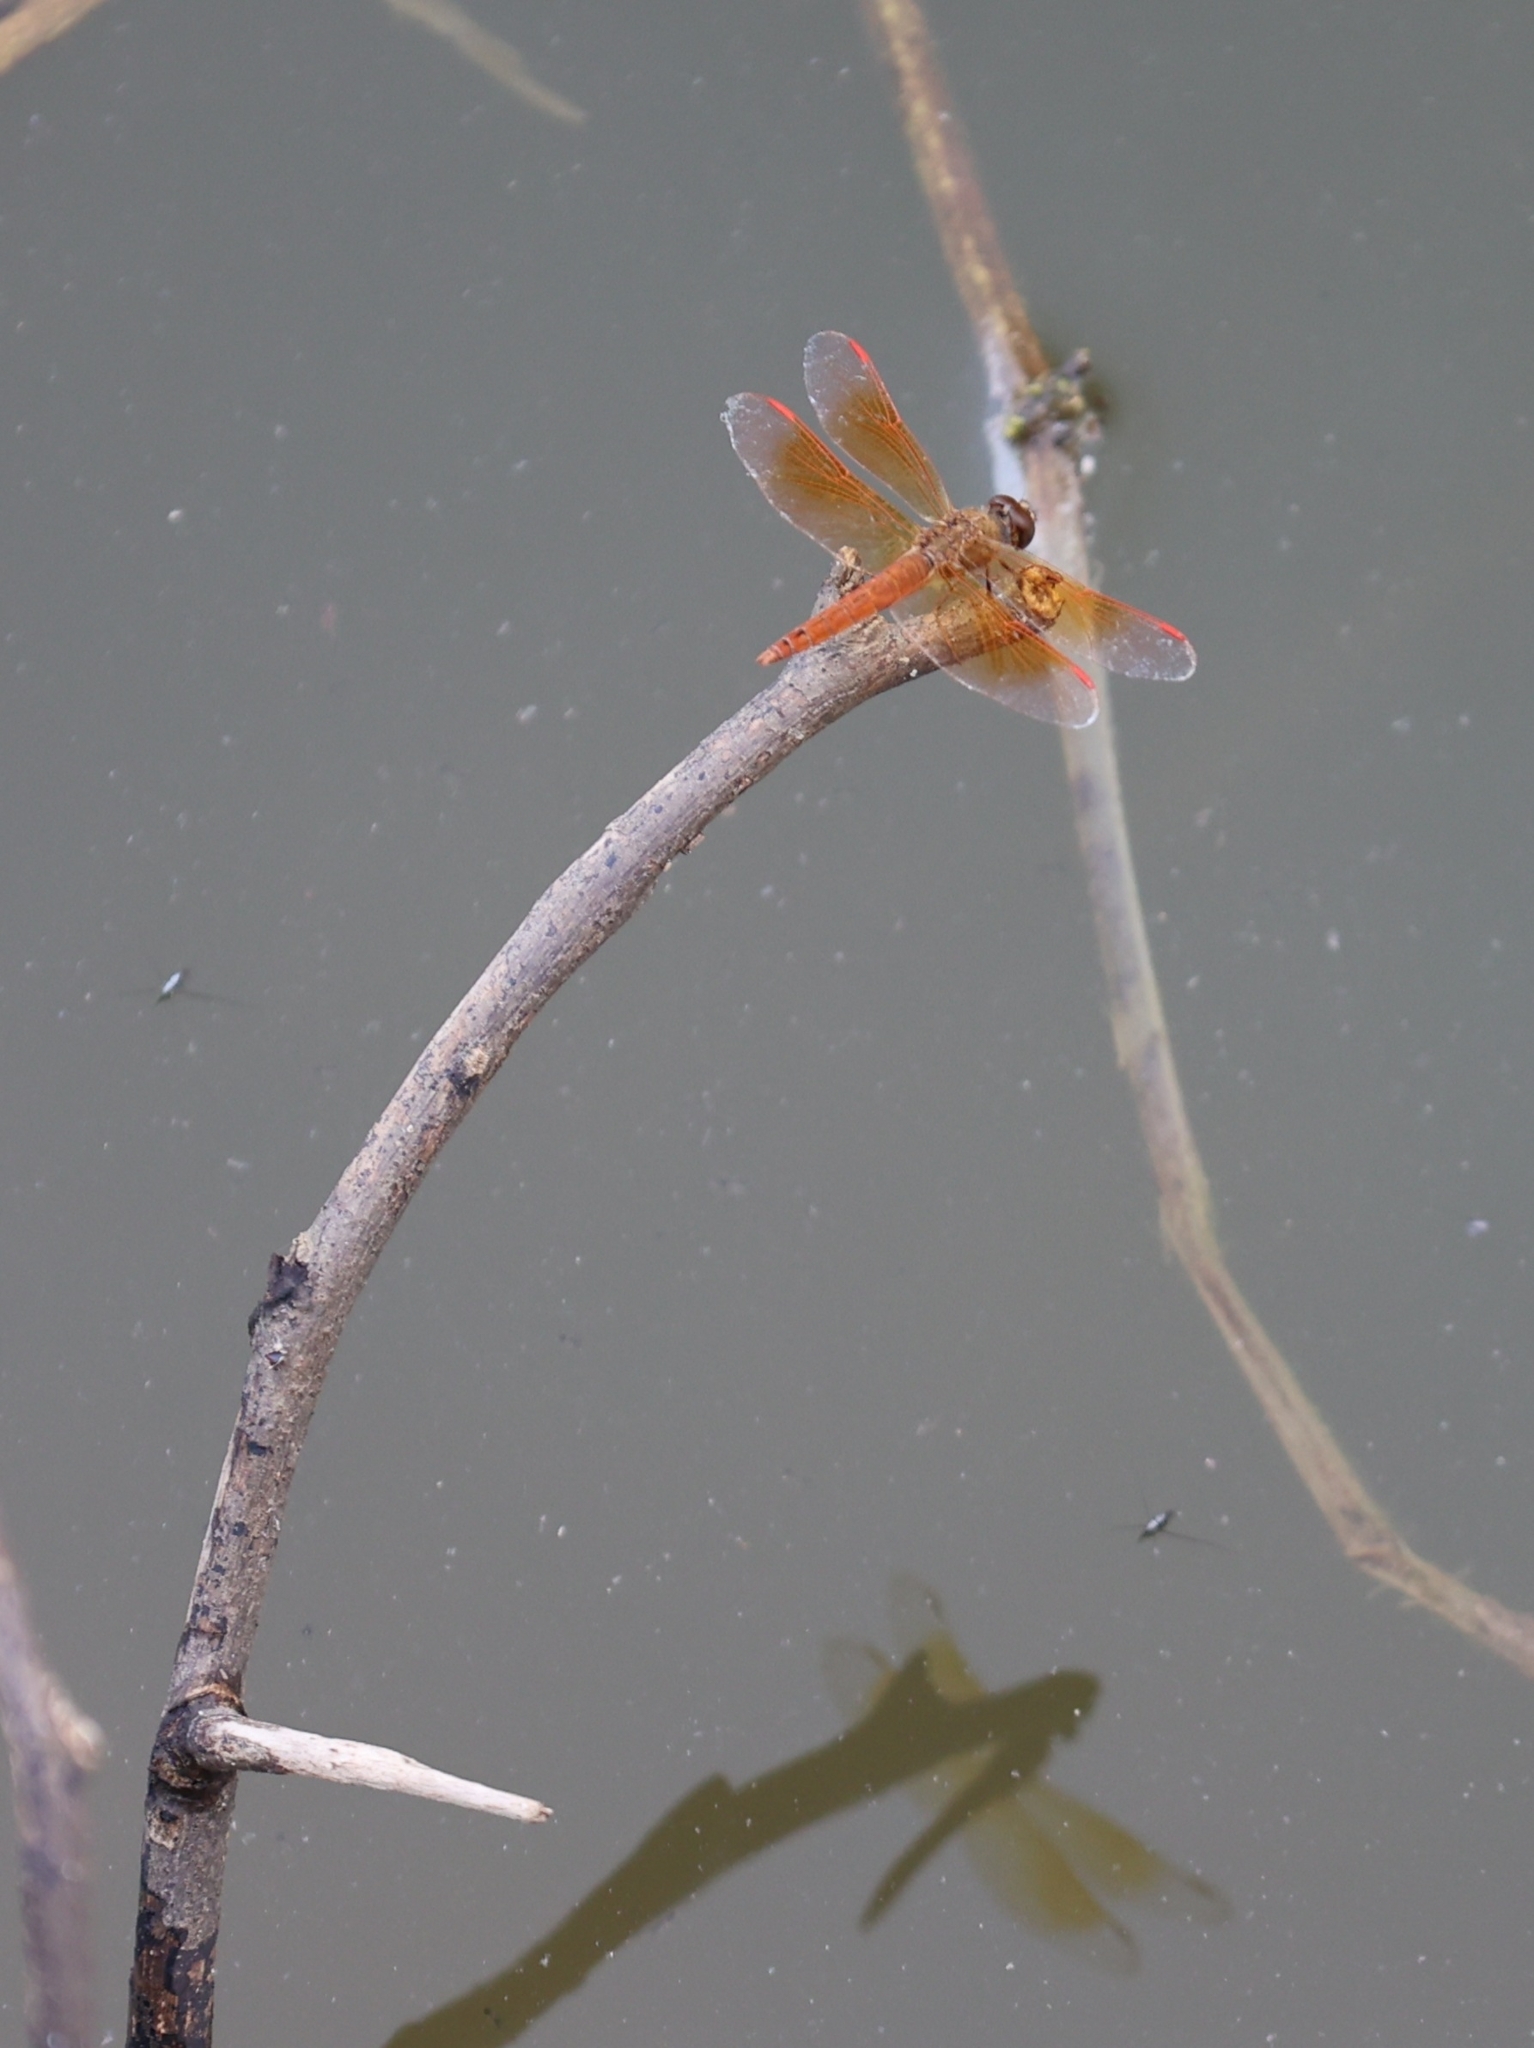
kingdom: Animalia
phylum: Arthropoda
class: Insecta
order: Odonata
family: Libellulidae
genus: Brachythemis
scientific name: Brachythemis contaminata
